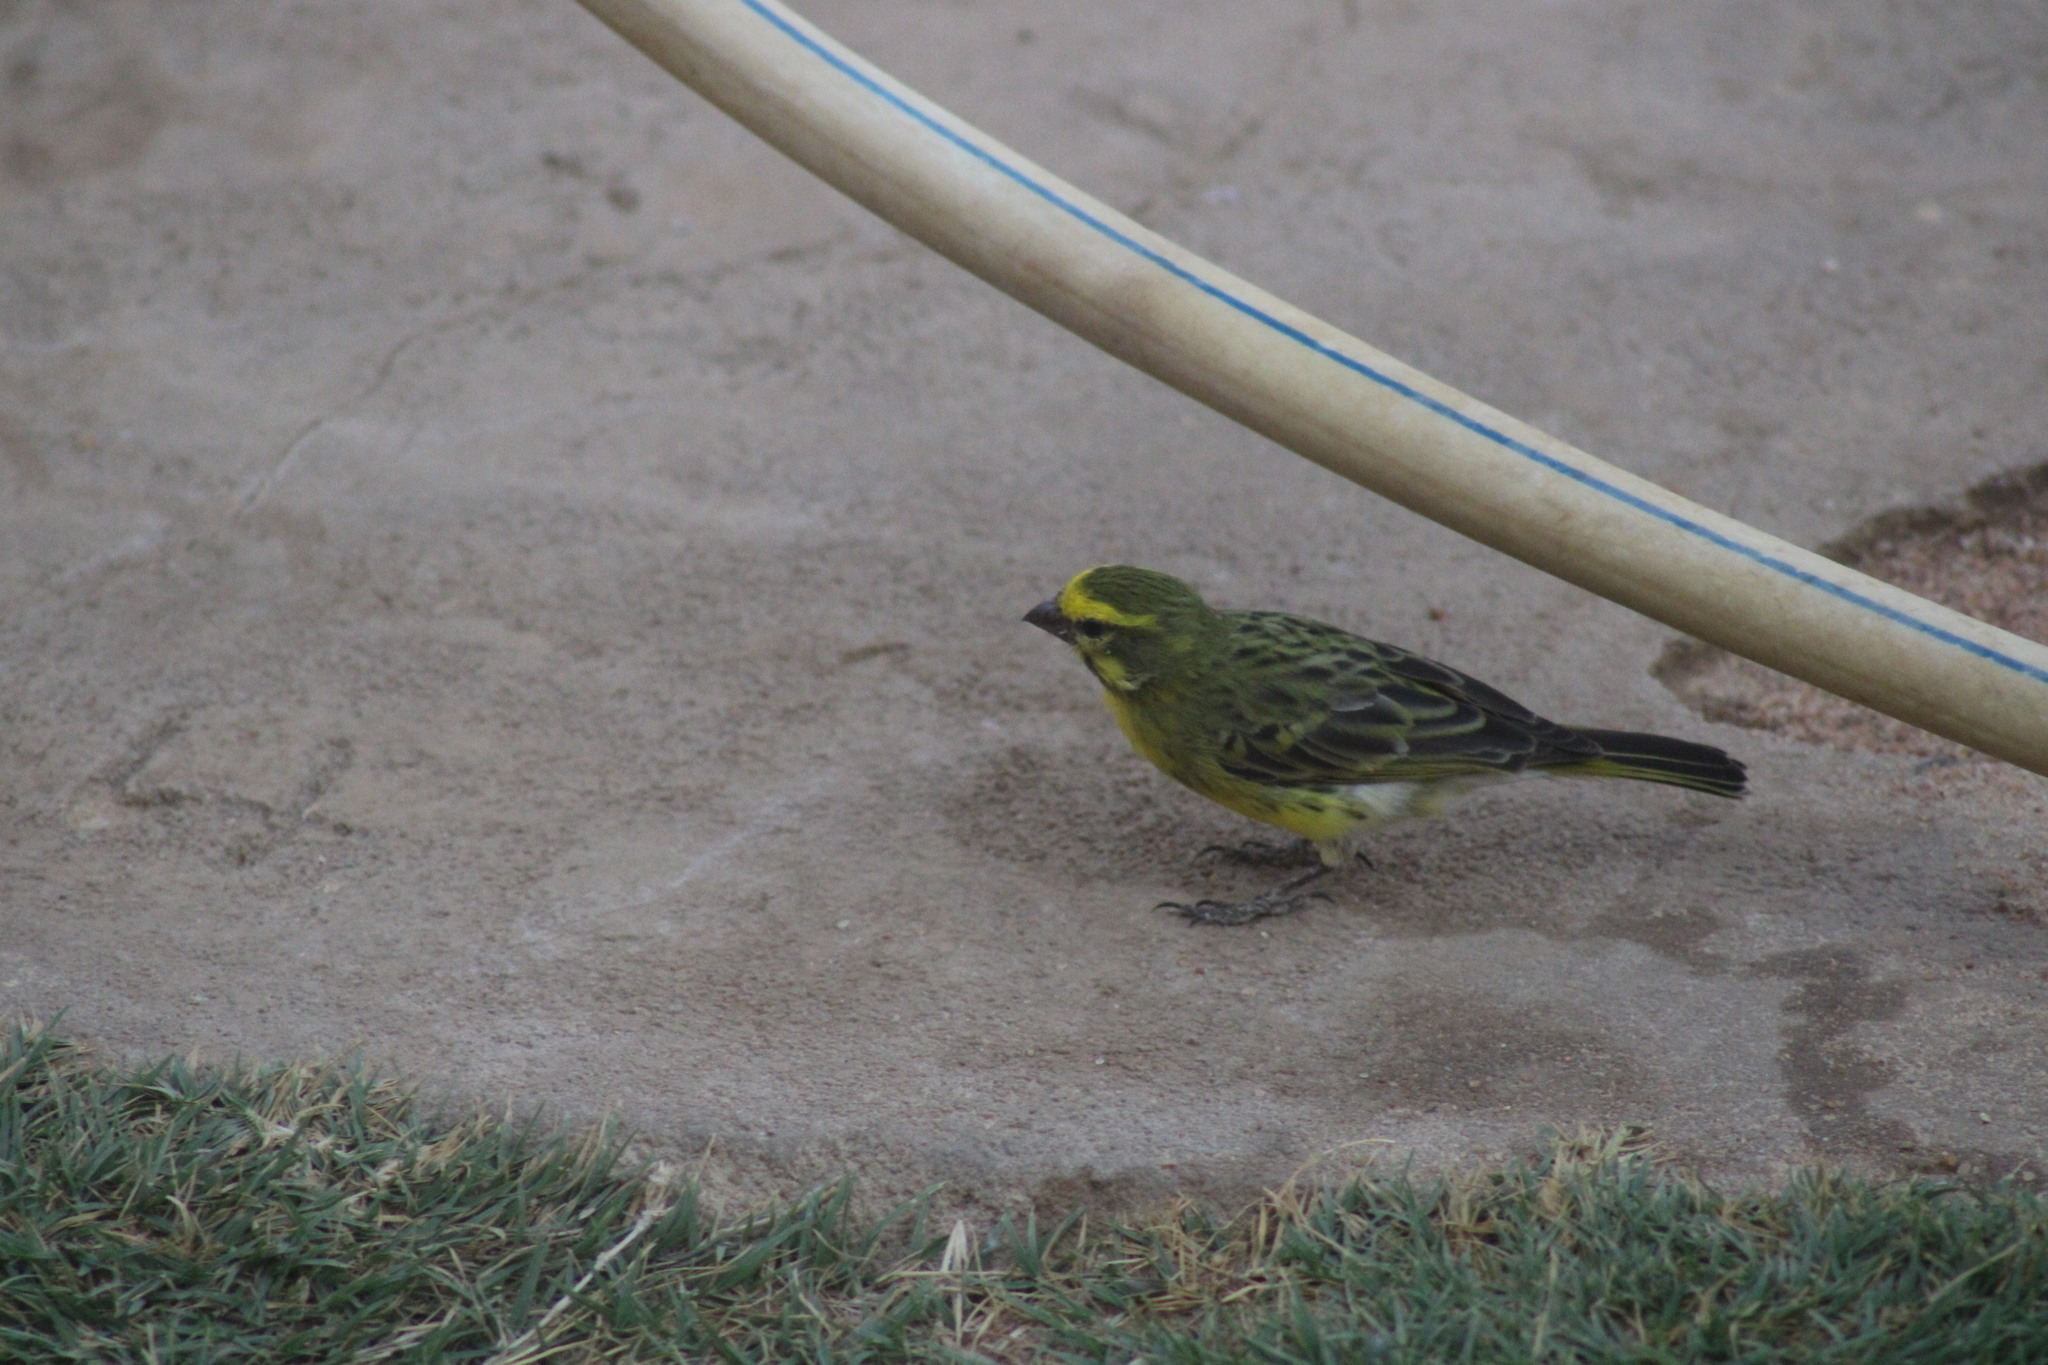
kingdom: Animalia
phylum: Chordata
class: Aves
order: Passeriformes
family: Fringillidae
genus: Crithagra
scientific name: Crithagra dorsostriata
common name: White-bellied canary
